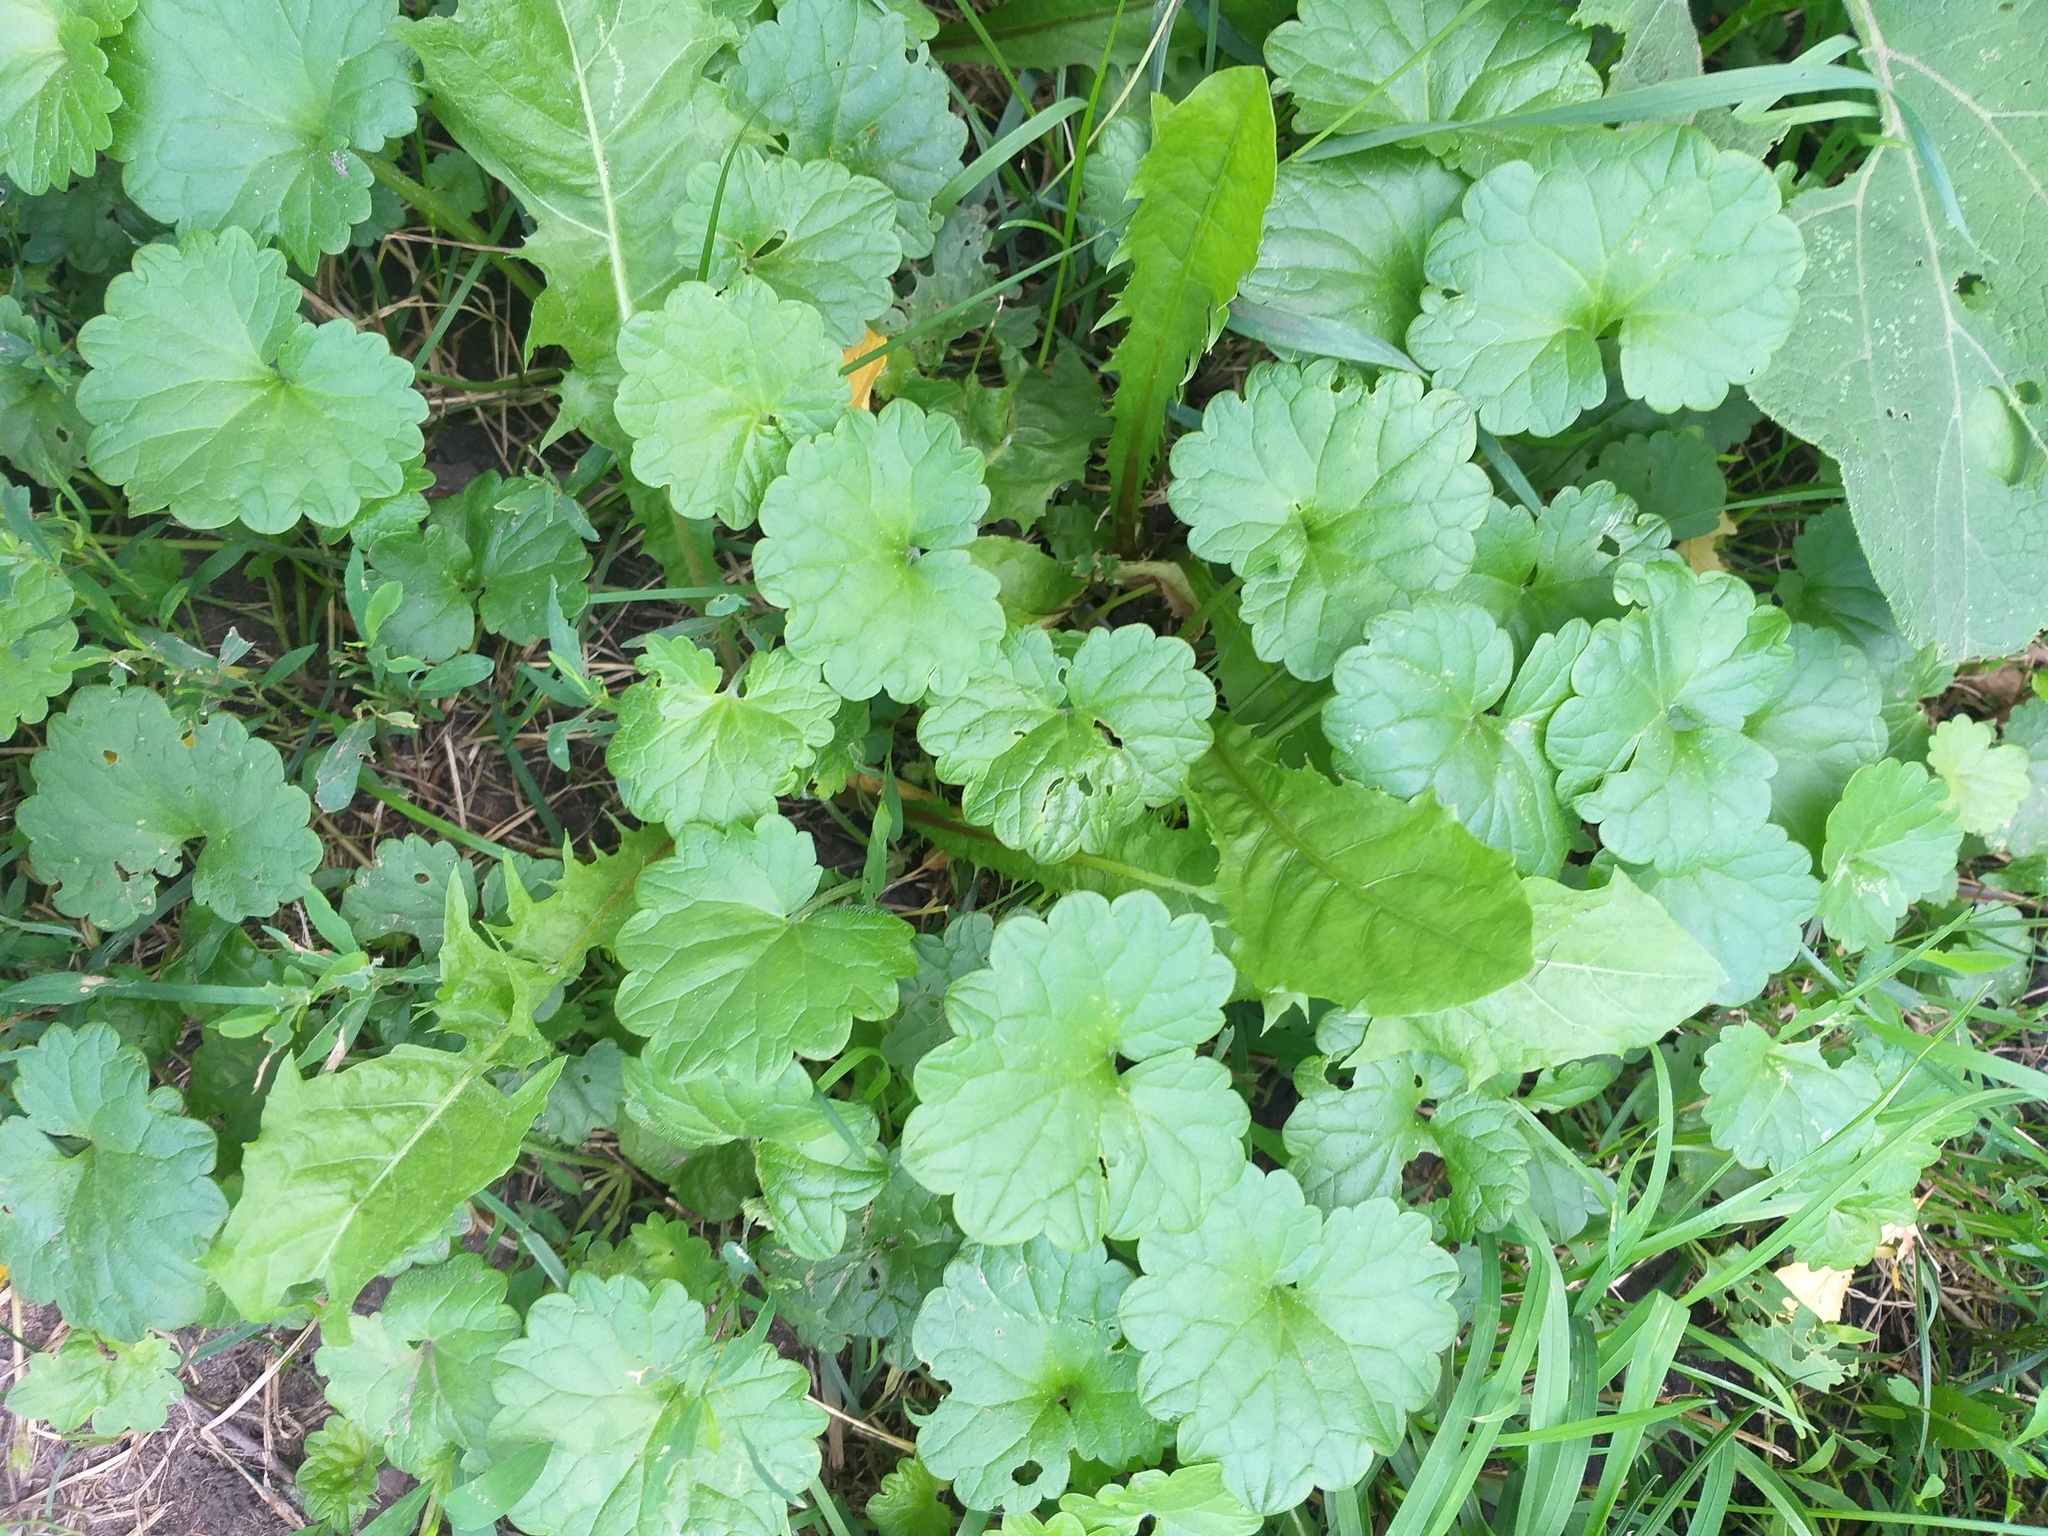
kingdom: Plantae
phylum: Tracheophyta
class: Magnoliopsida
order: Lamiales
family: Lamiaceae
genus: Glechoma
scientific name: Glechoma hederacea
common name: Ground ivy
